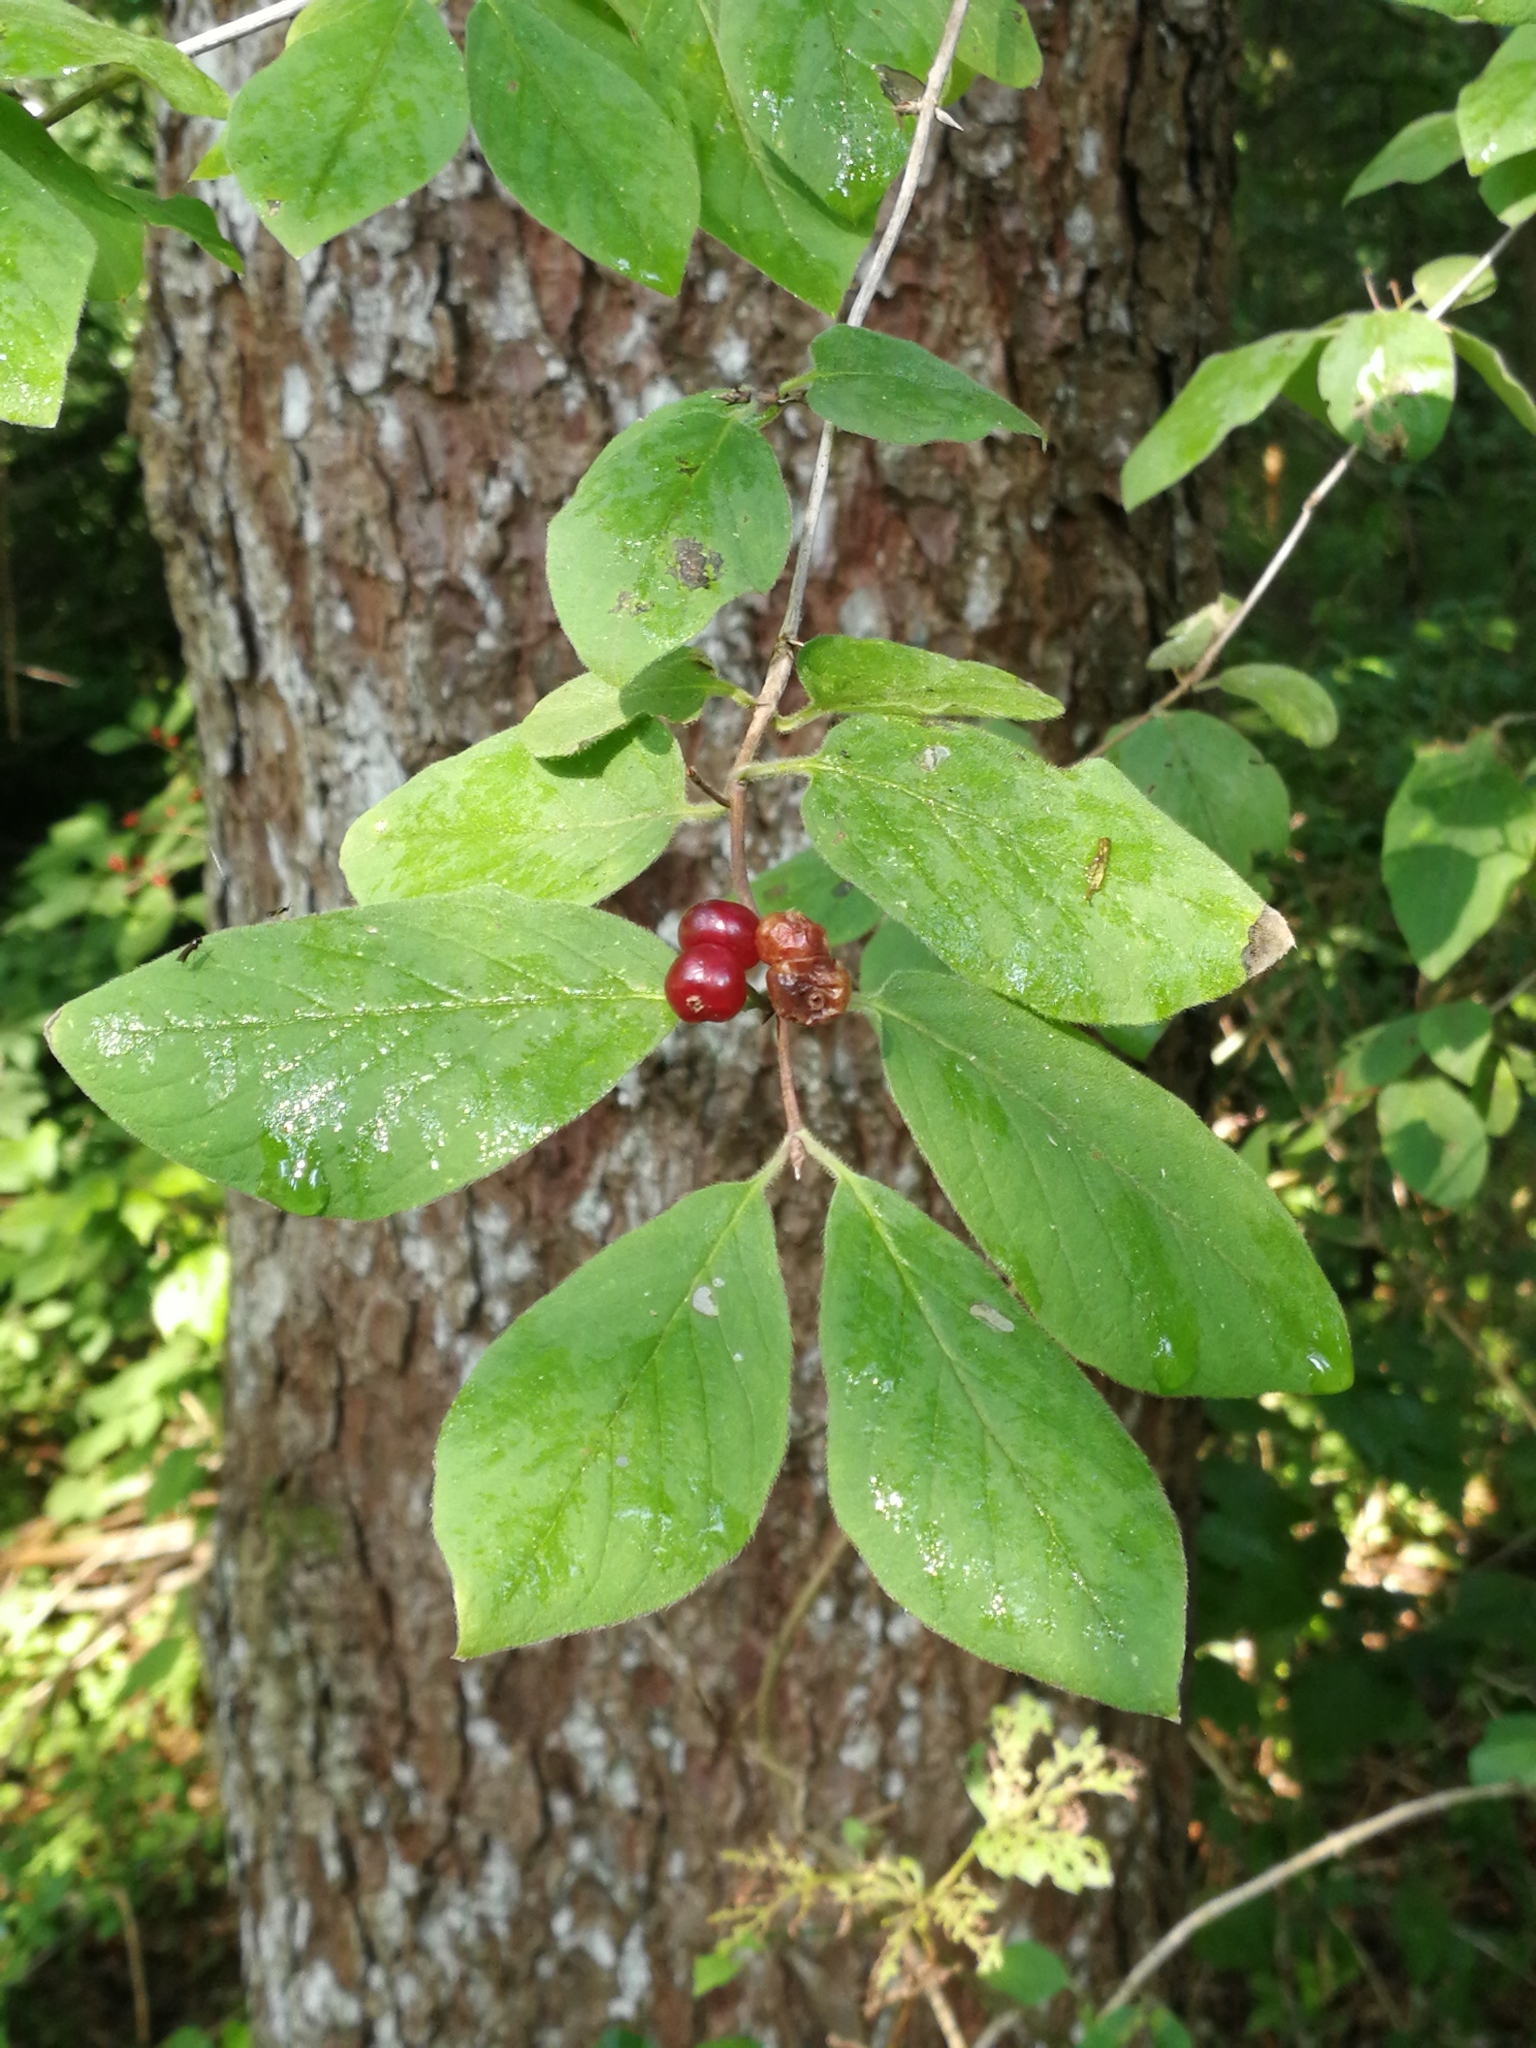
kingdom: Plantae
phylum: Tracheophyta
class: Magnoliopsida
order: Dipsacales
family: Caprifoliaceae
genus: Lonicera
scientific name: Lonicera xylosteum
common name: Fly honeysuckle
